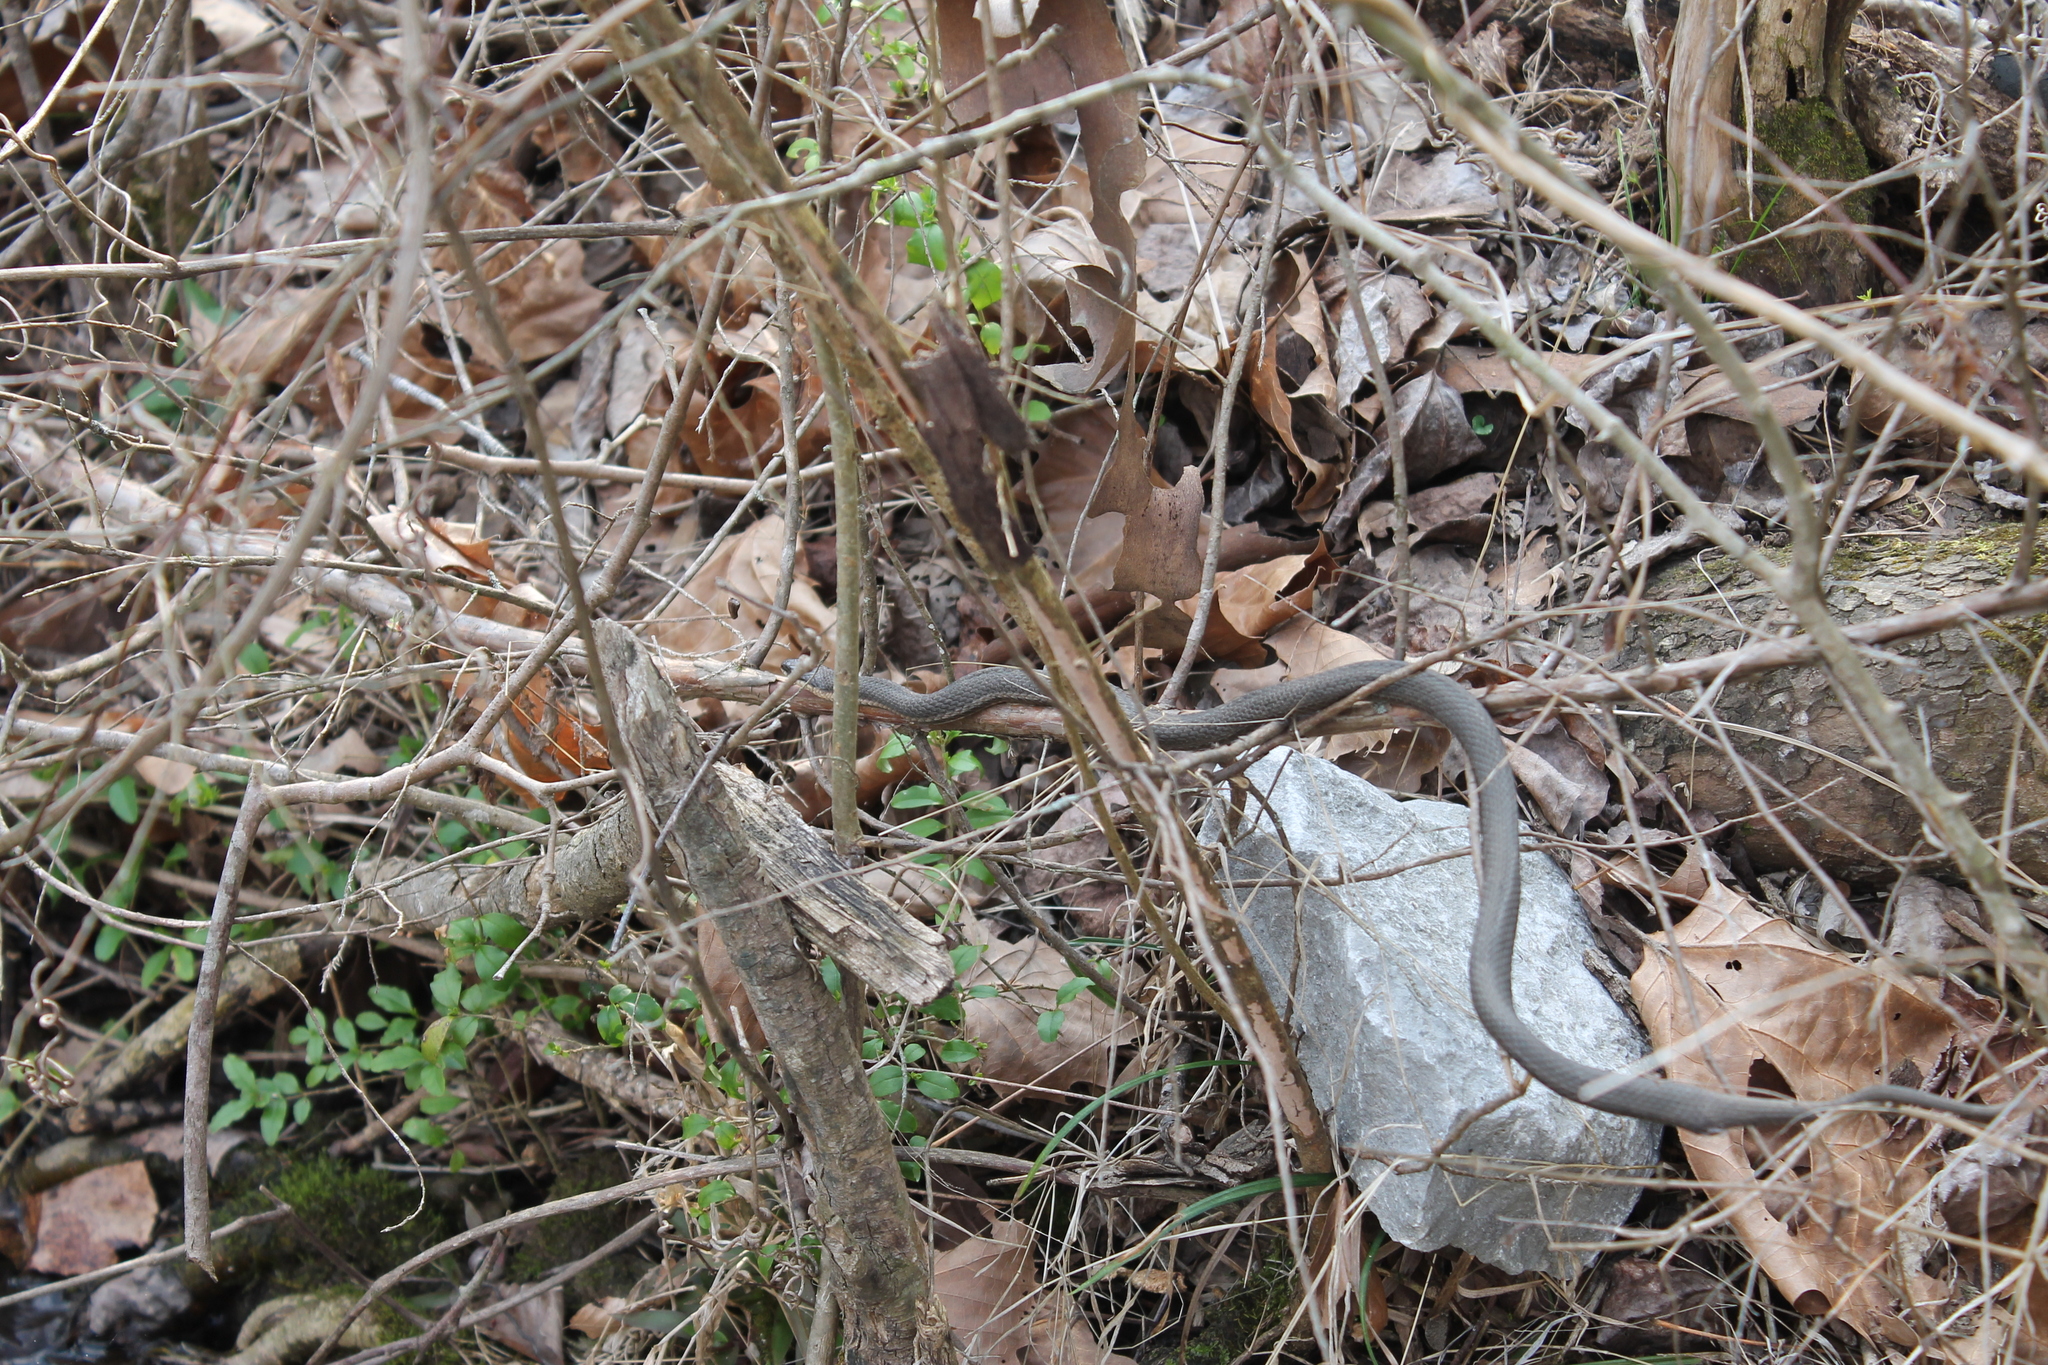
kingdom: Animalia
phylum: Chordata
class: Squamata
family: Colubridae
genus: Regina
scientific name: Regina septemvittata
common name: Queen snake
